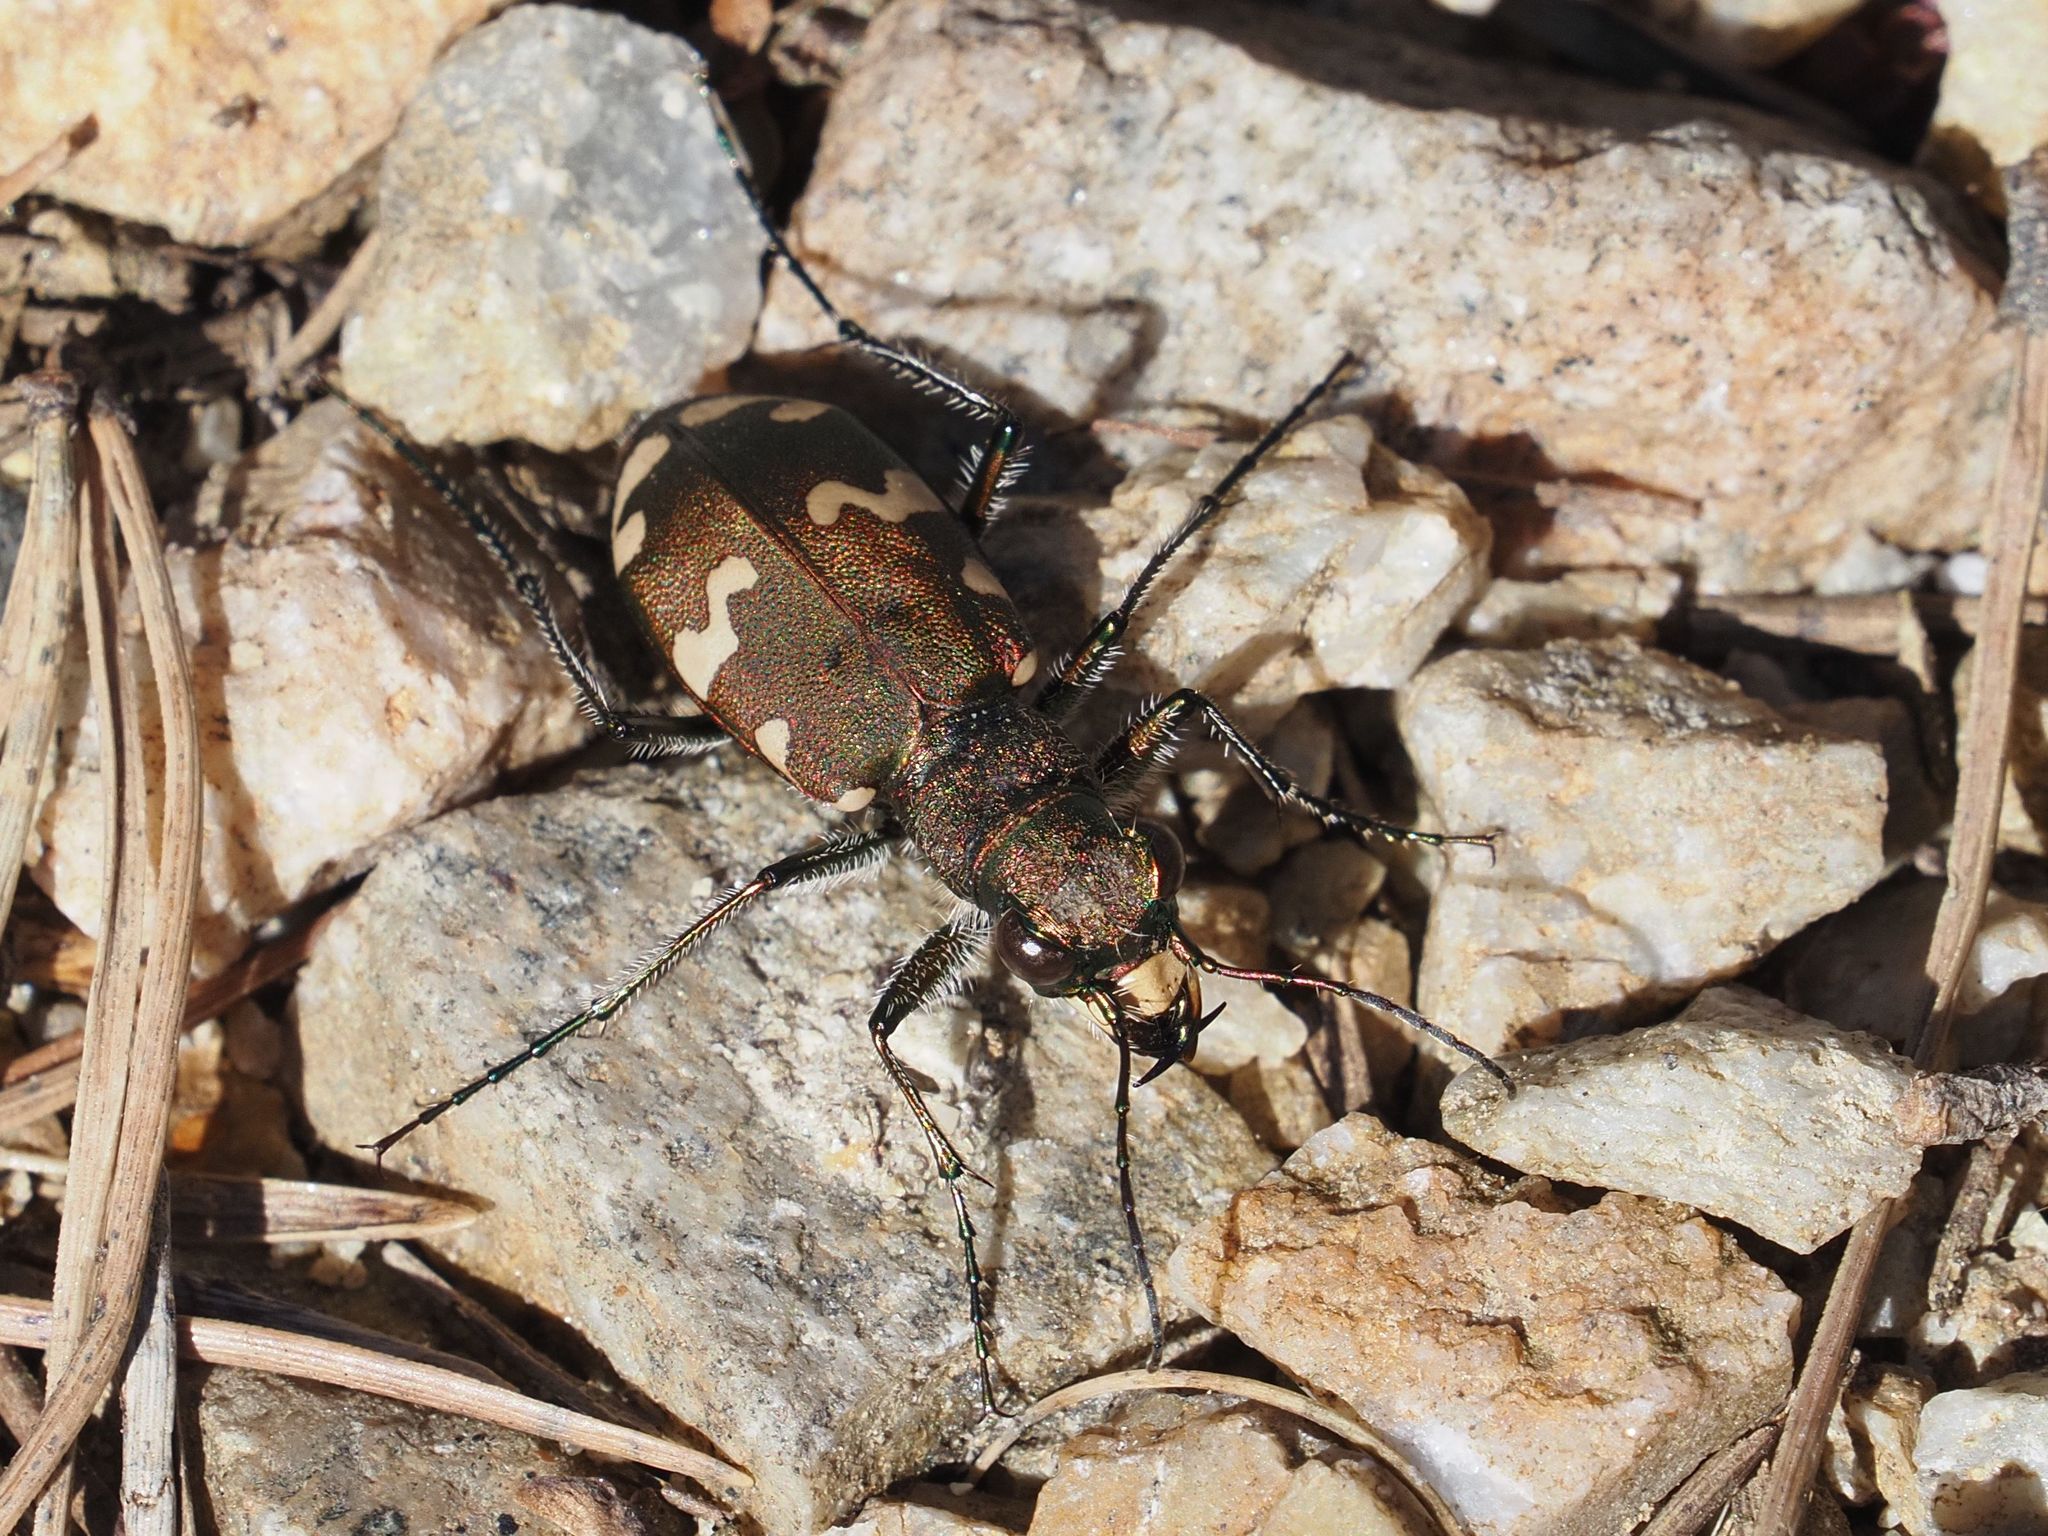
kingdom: Animalia
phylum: Arthropoda
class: Insecta
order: Coleoptera
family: Carabidae
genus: Cicindela
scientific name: Cicindela sylvicola
